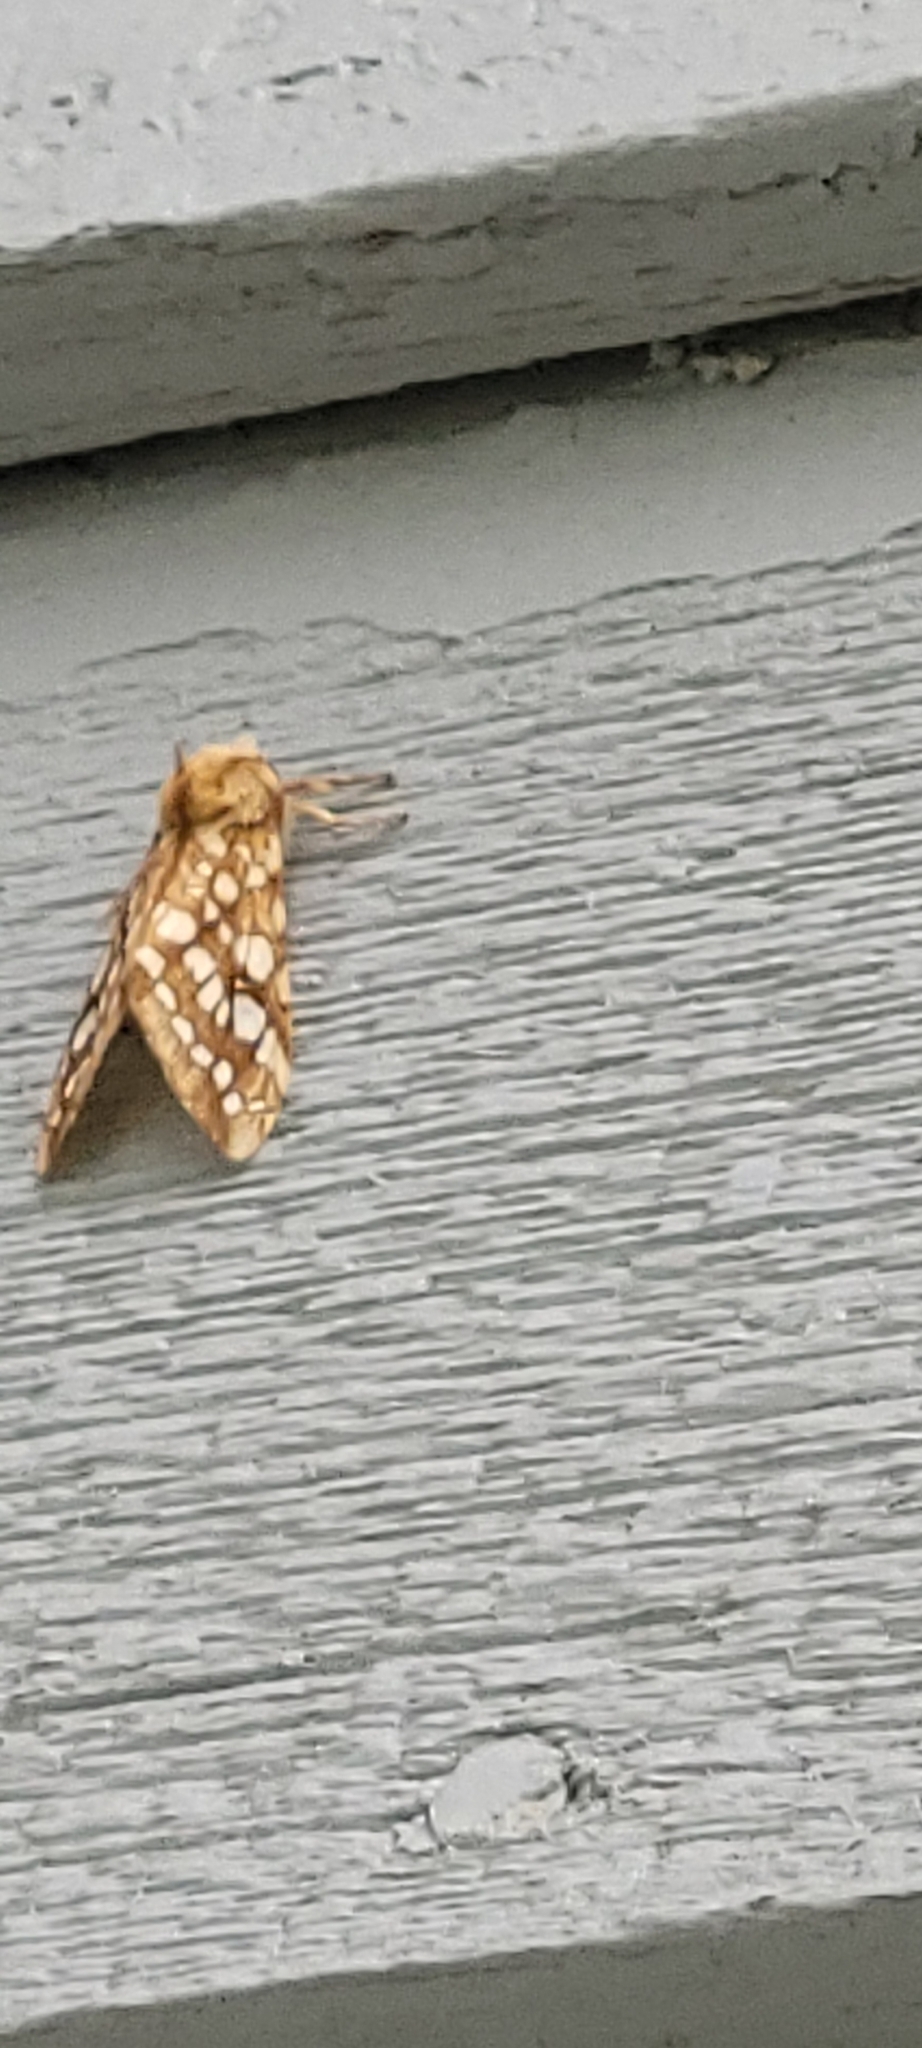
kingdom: Animalia
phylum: Arthropoda
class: Insecta
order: Lepidoptera
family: Erebidae
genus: Lophocampa
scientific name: Lophocampa caryae
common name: Hickory tussock moth
